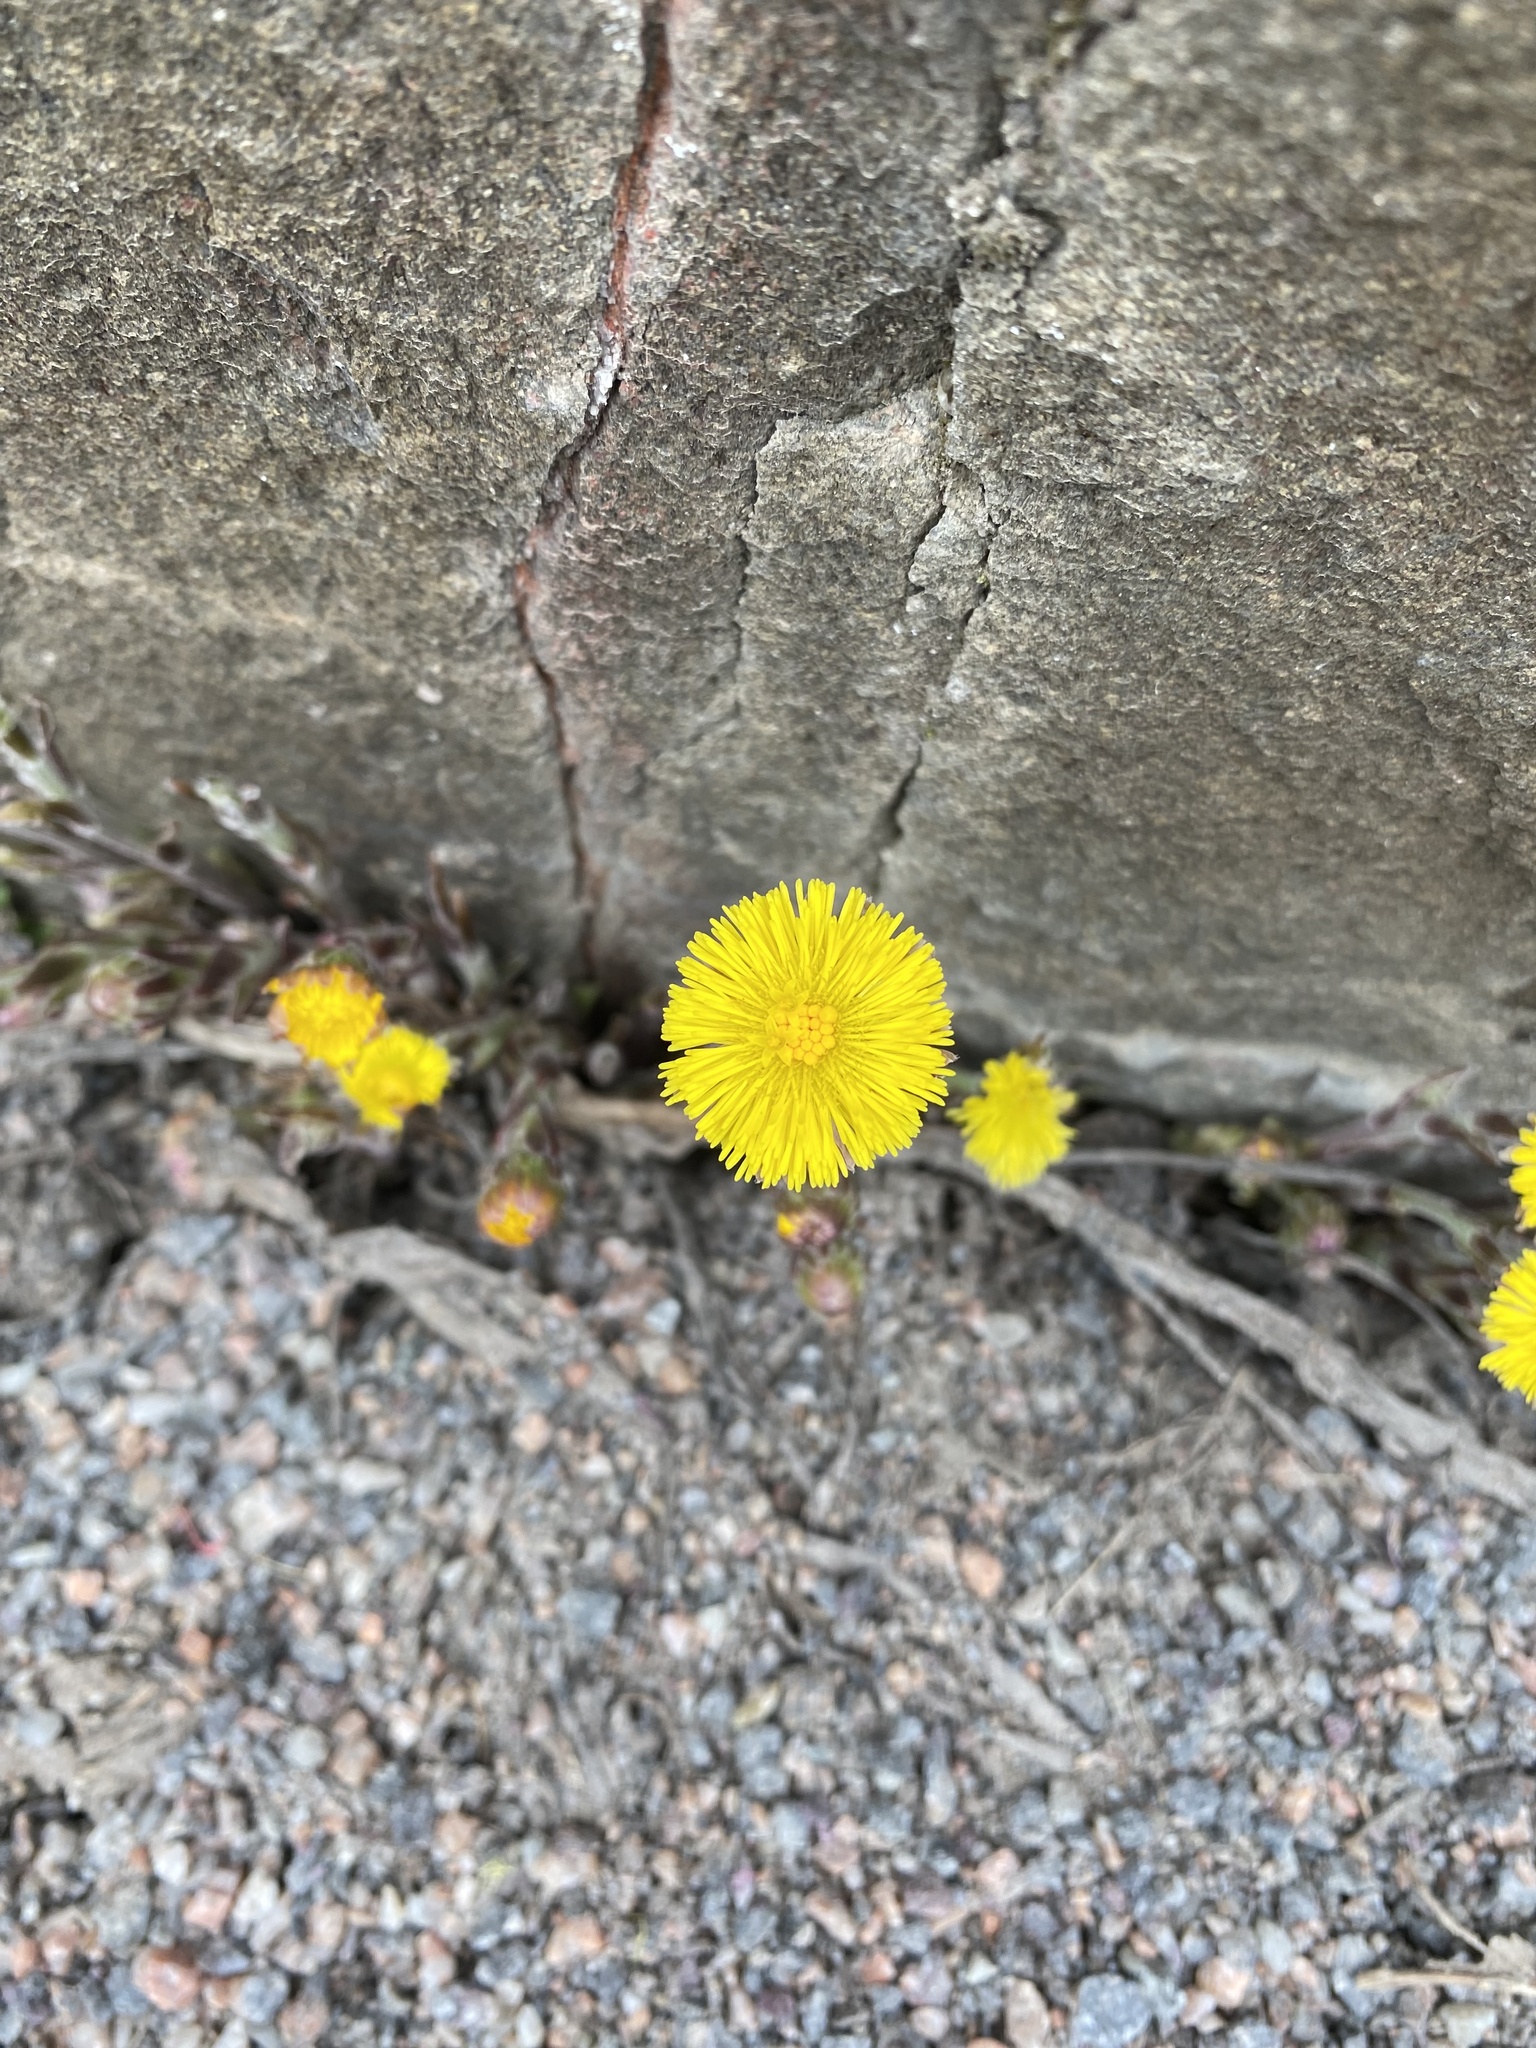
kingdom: Plantae
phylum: Tracheophyta
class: Magnoliopsida
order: Asterales
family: Asteraceae
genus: Tussilago
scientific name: Tussilago farfara
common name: Coltsfoot
